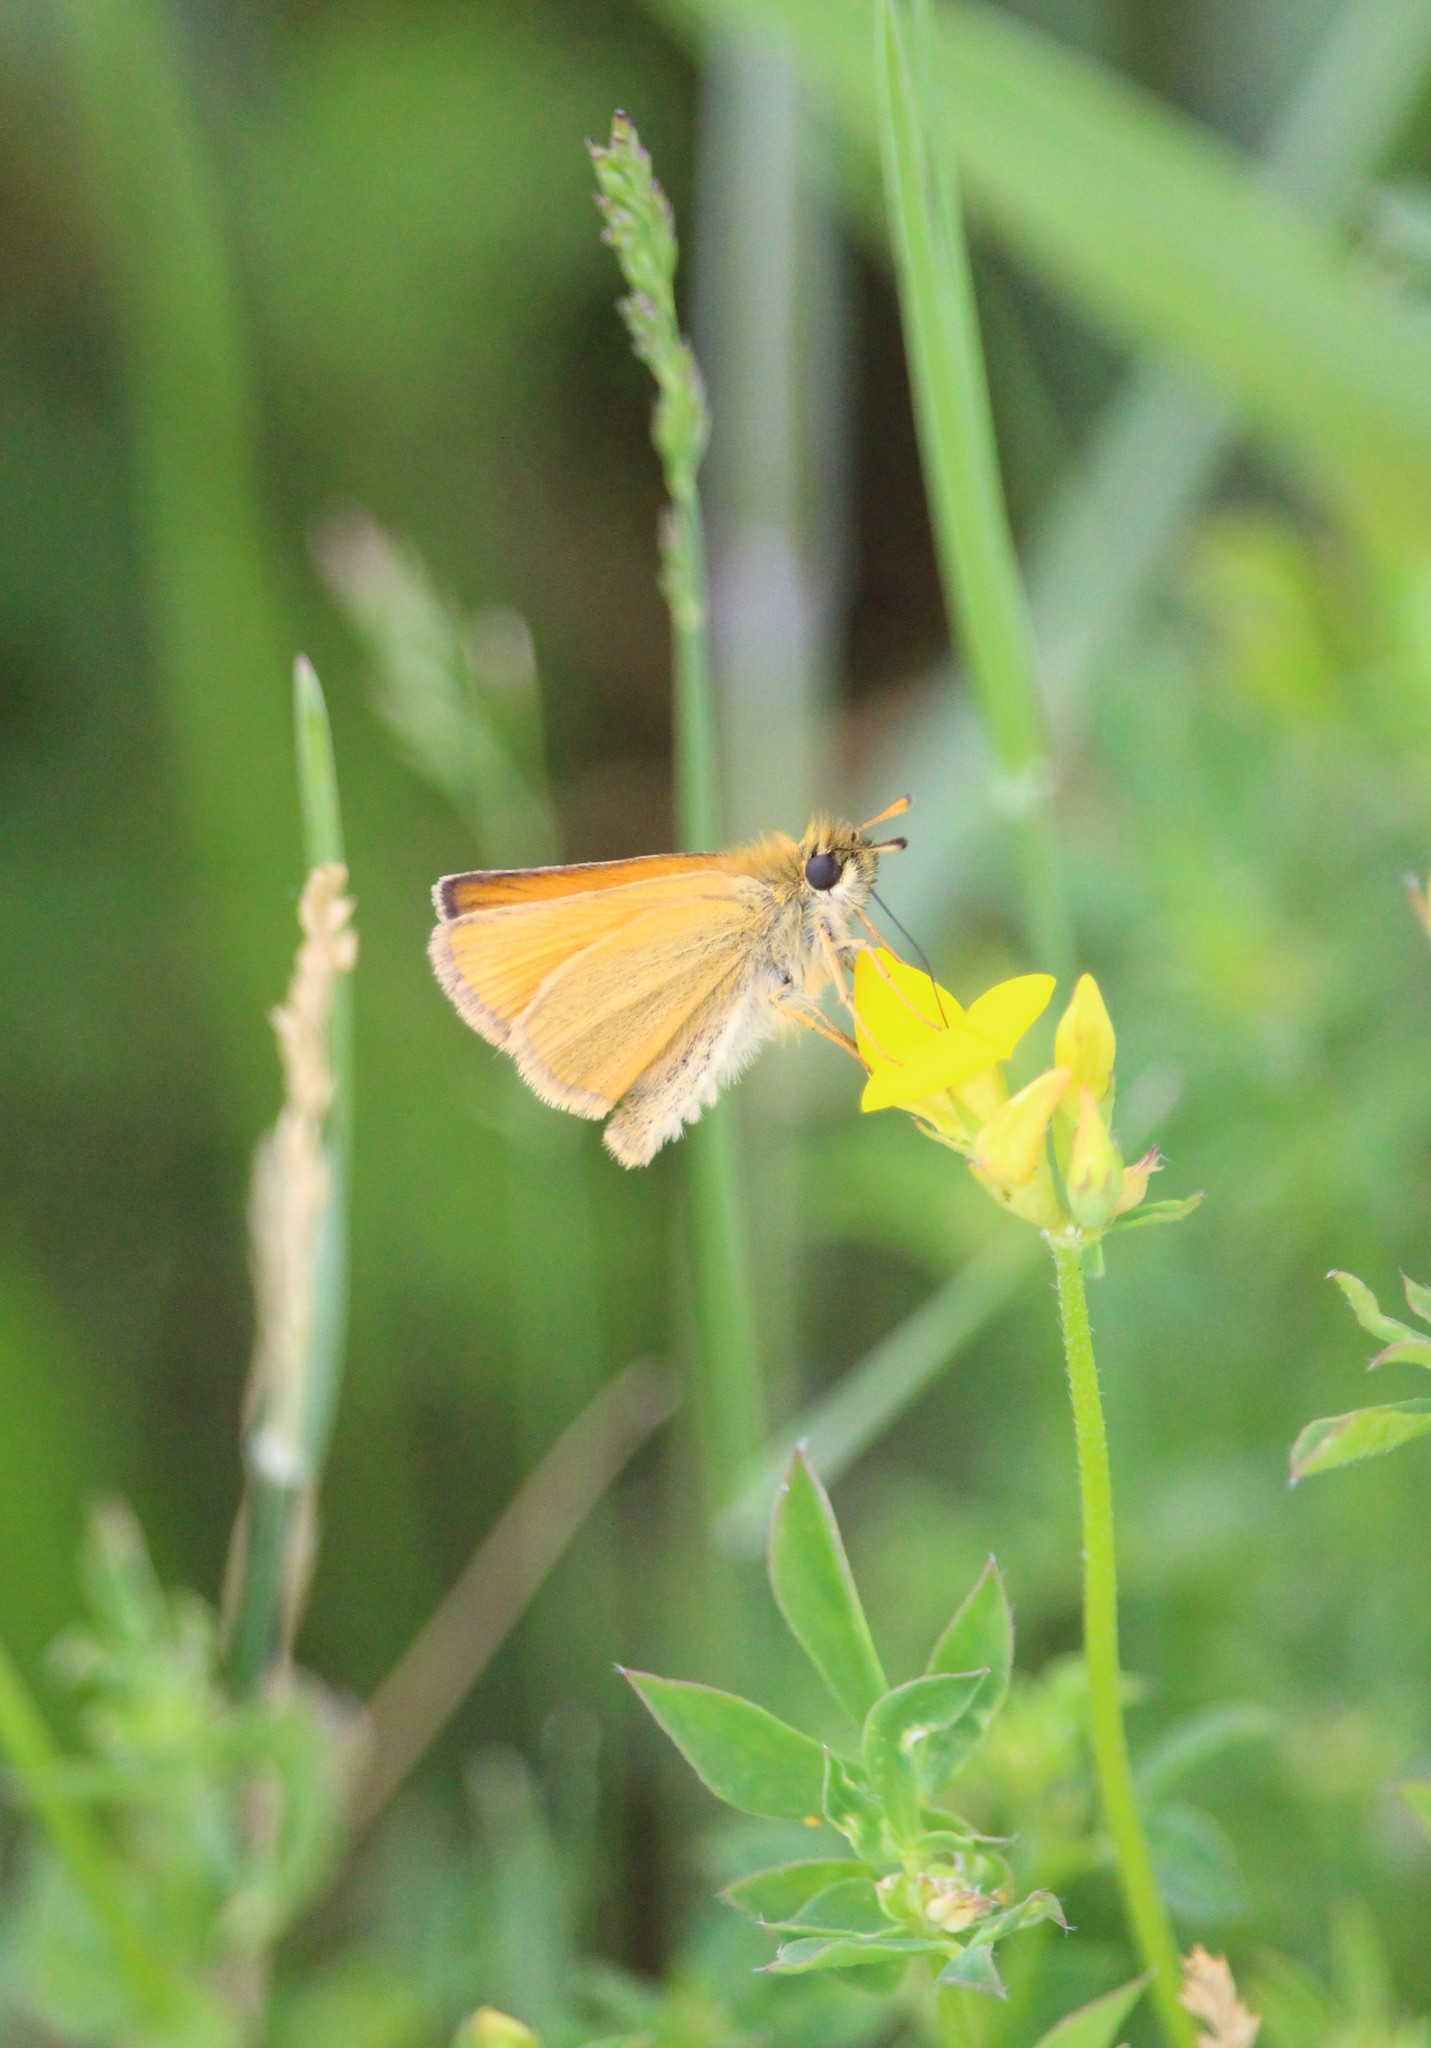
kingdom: Animalia
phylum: Arthropoda
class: Insecta
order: Lepidoptera
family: Hesperiidae
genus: Thymelicus
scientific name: Thymelicus lineola
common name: Essex skipper
